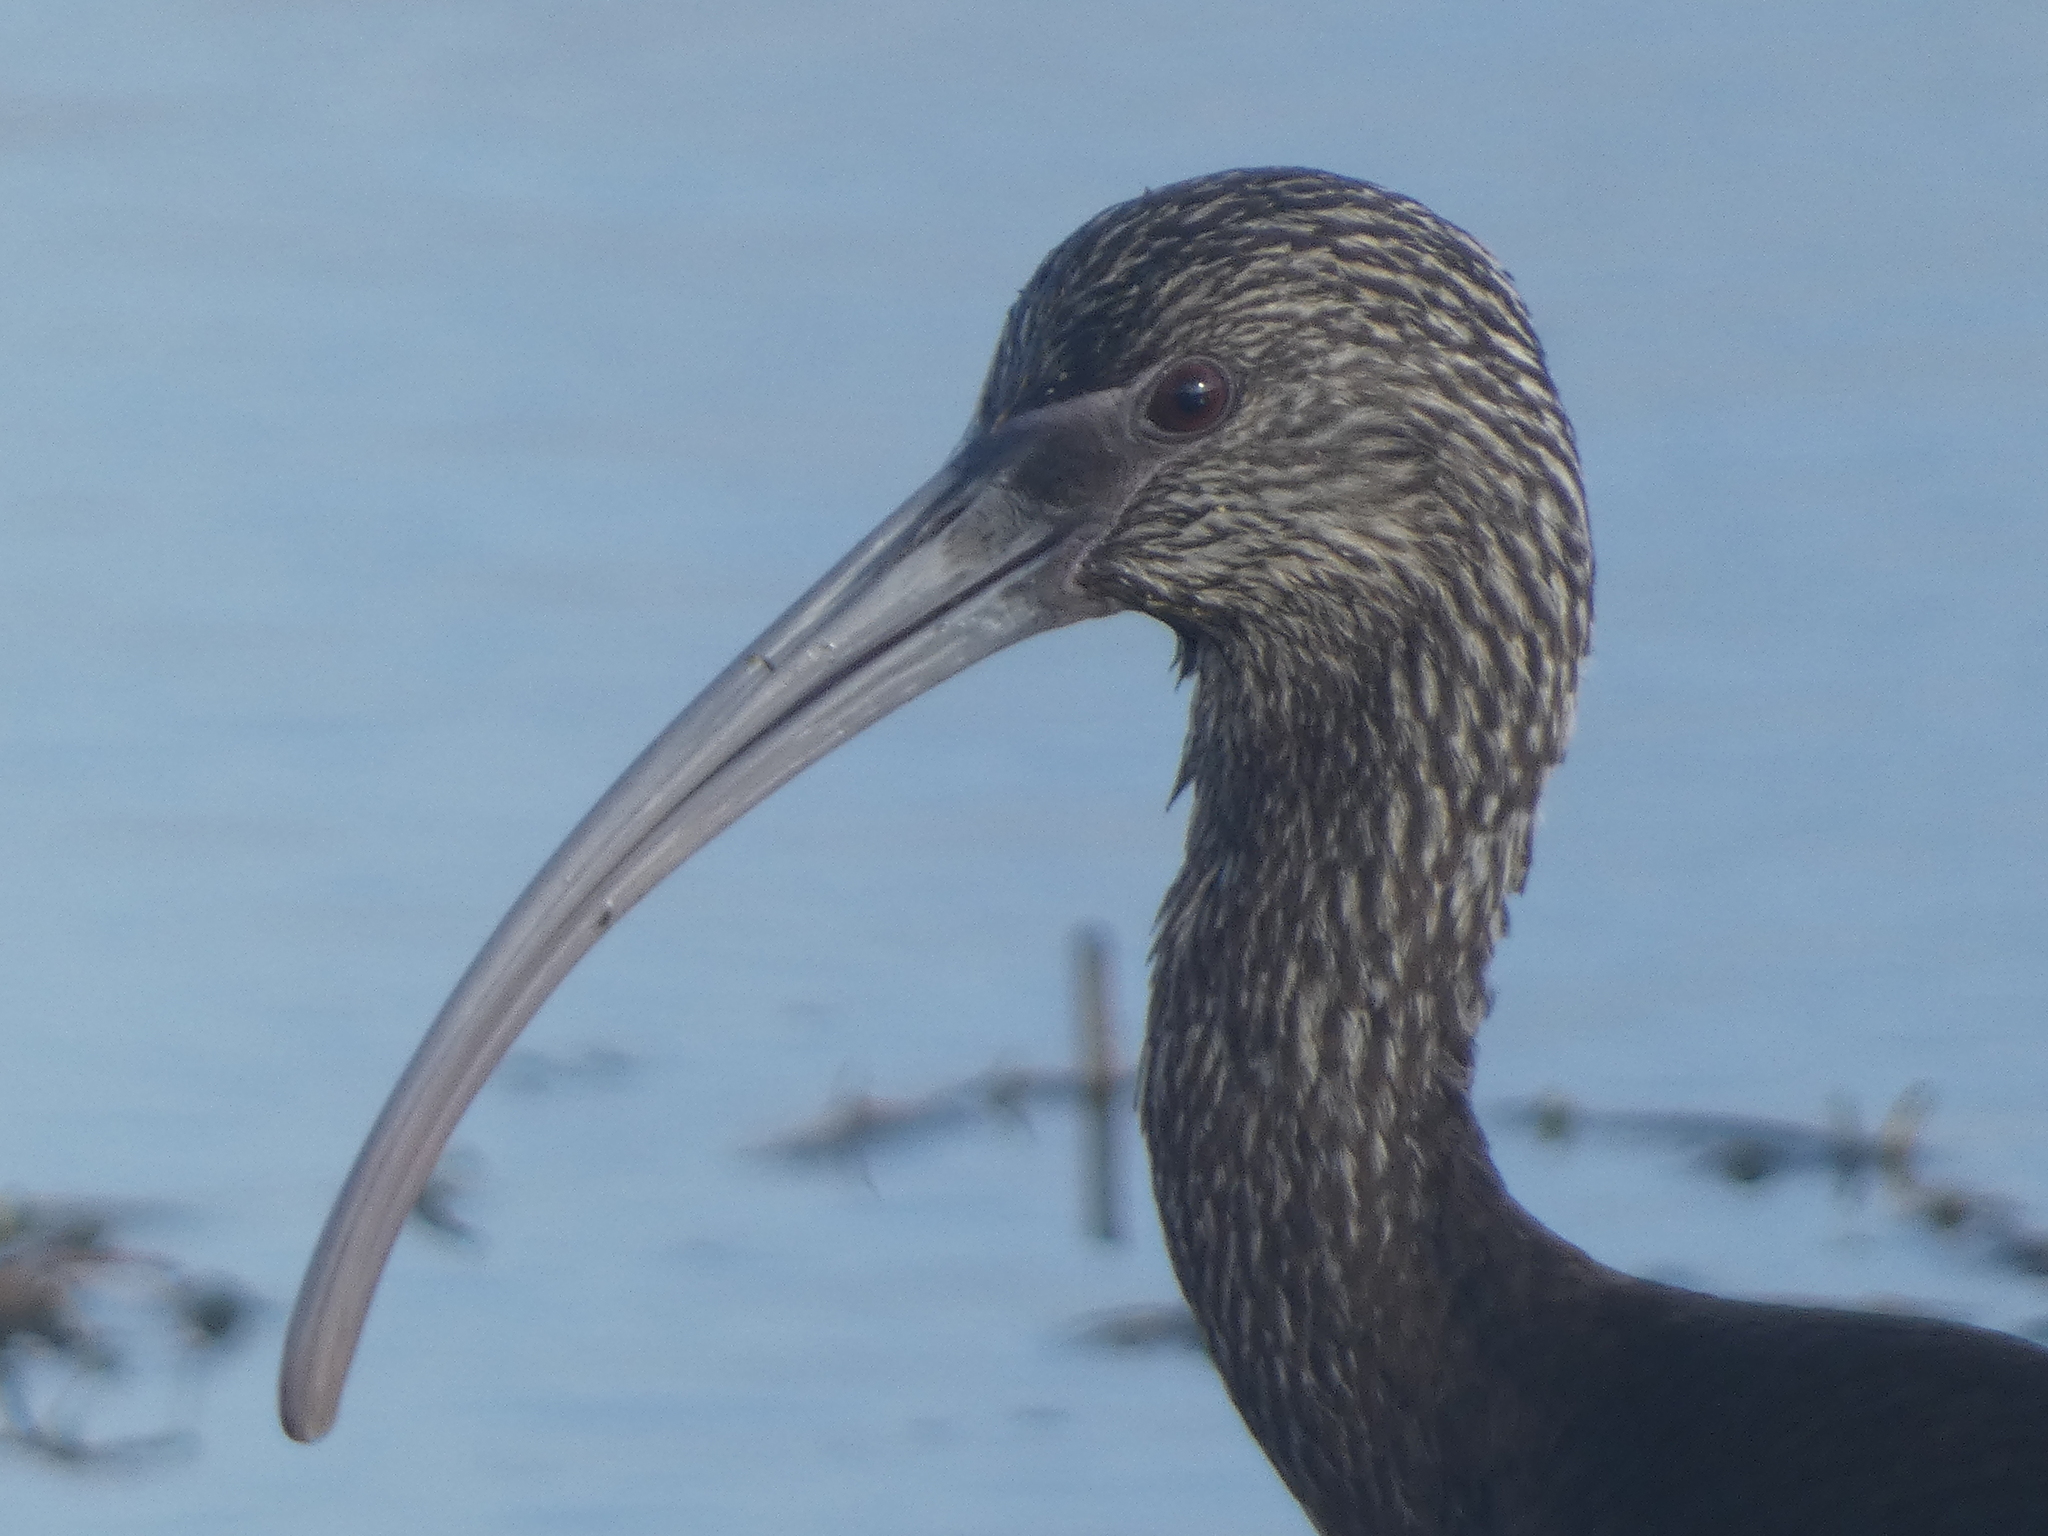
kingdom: Animalia
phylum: Chordata
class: Aves
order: Pelecaniformes
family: Threskiornithidae
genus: Plegadis
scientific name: Plegadis chihi
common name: White-faced ibis
